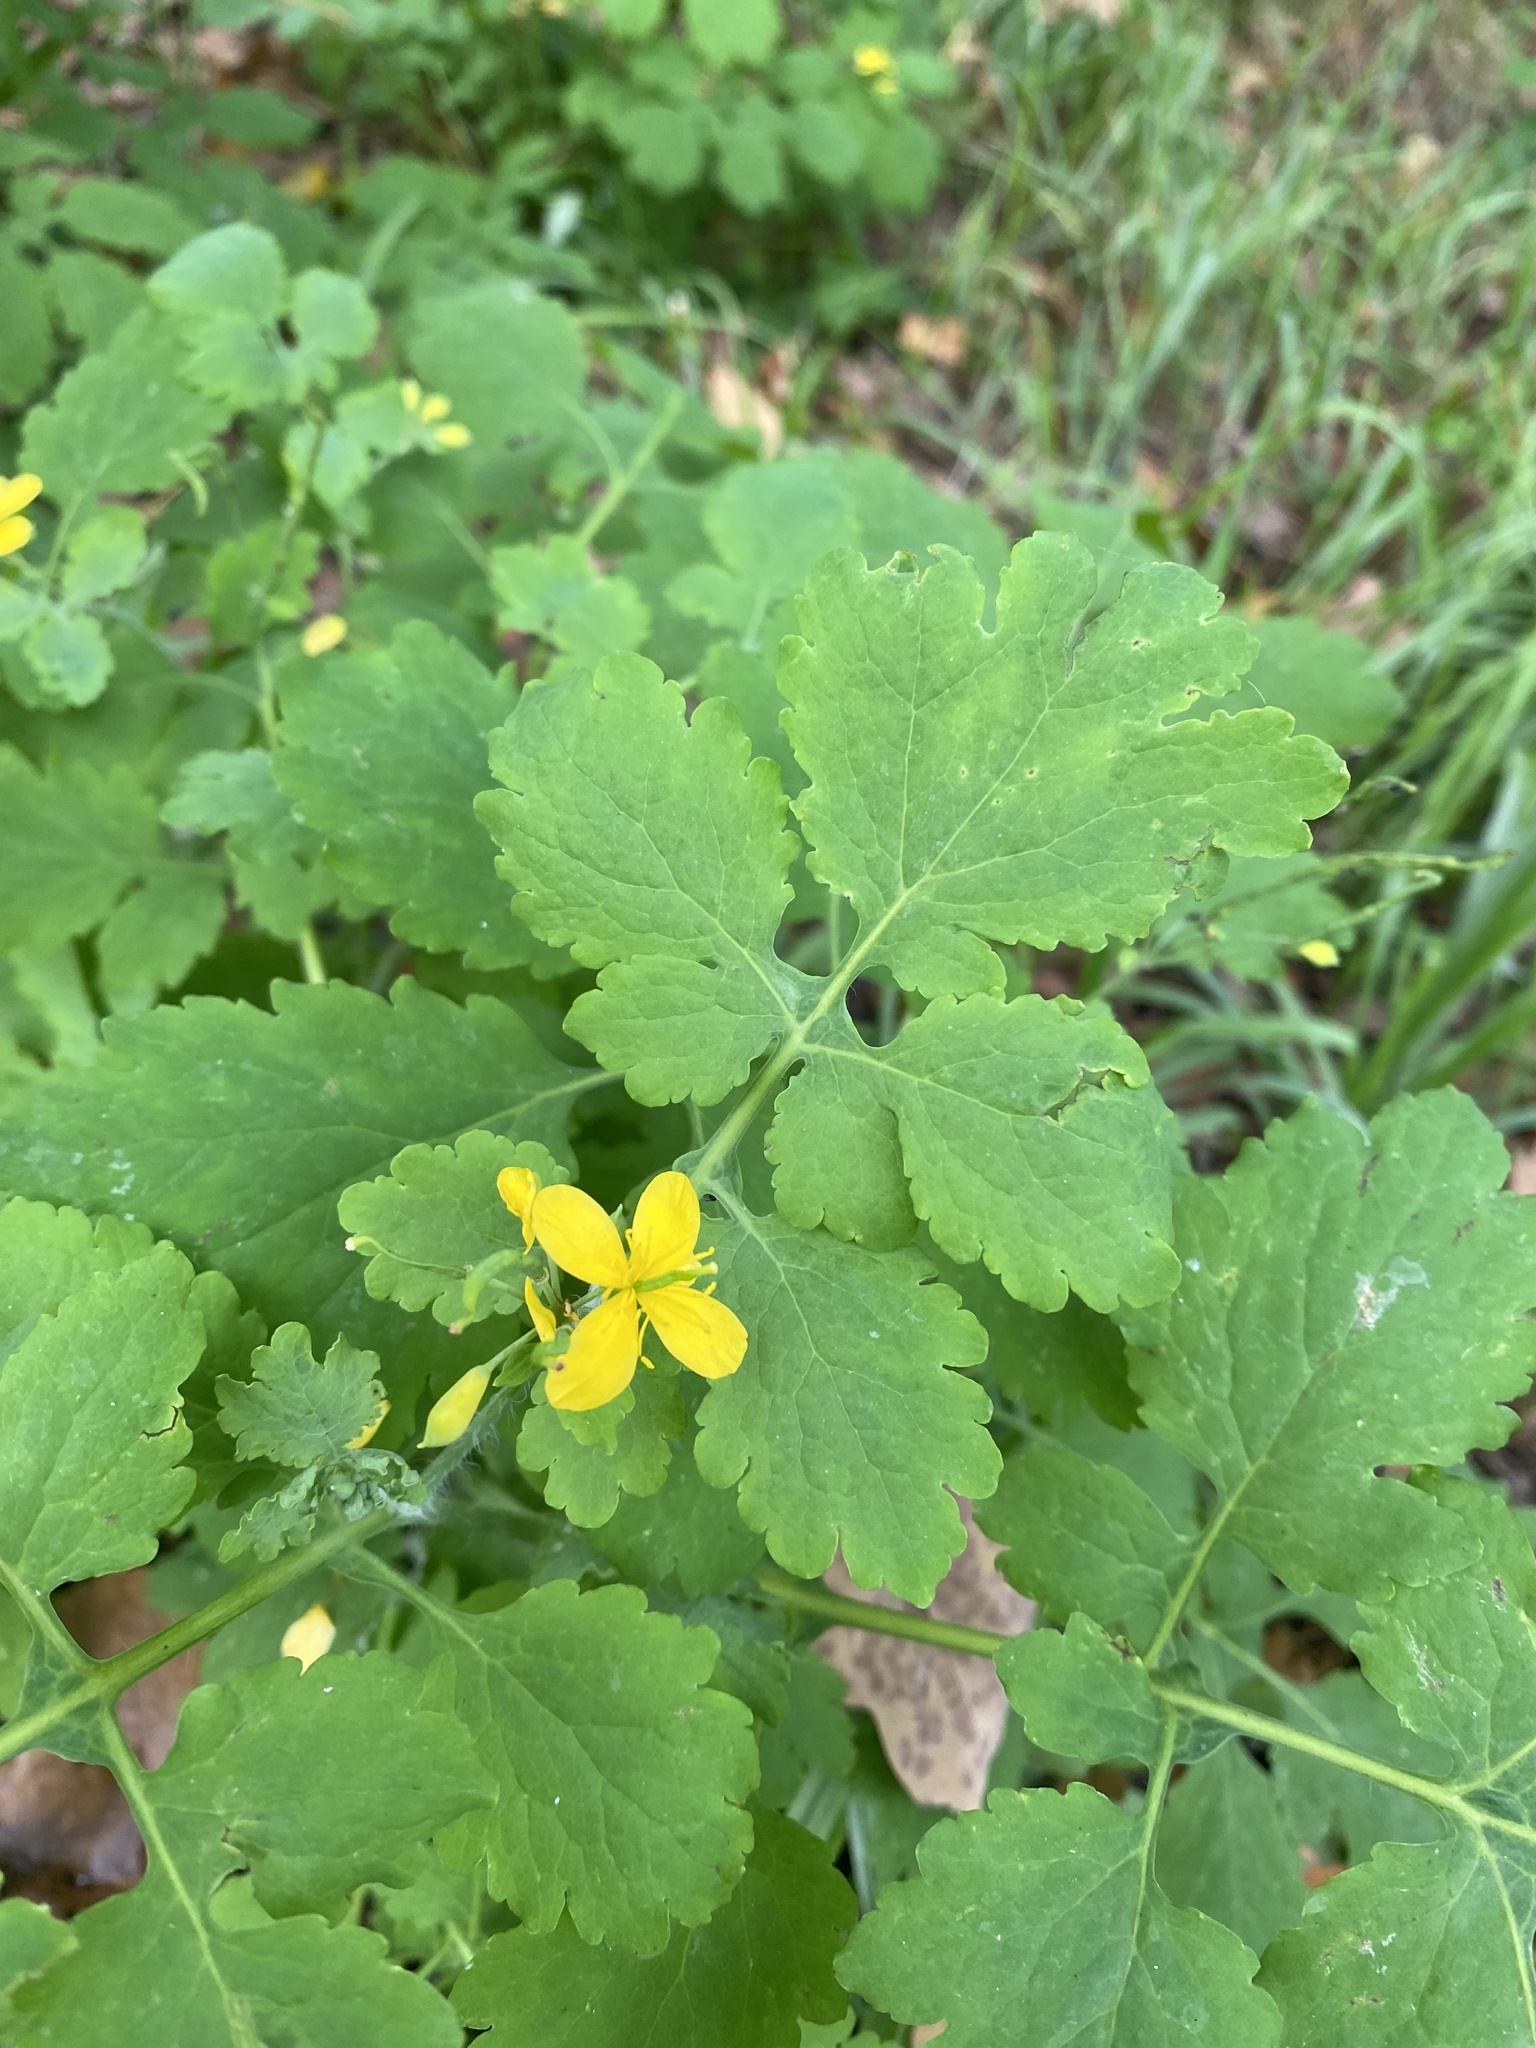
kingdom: Plantae
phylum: Tracheophyta
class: Magnoliopsida
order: Ranunculales
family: Papaveraceae
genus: Chelidonium
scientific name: Chelidonium majus
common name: Greater celandine
